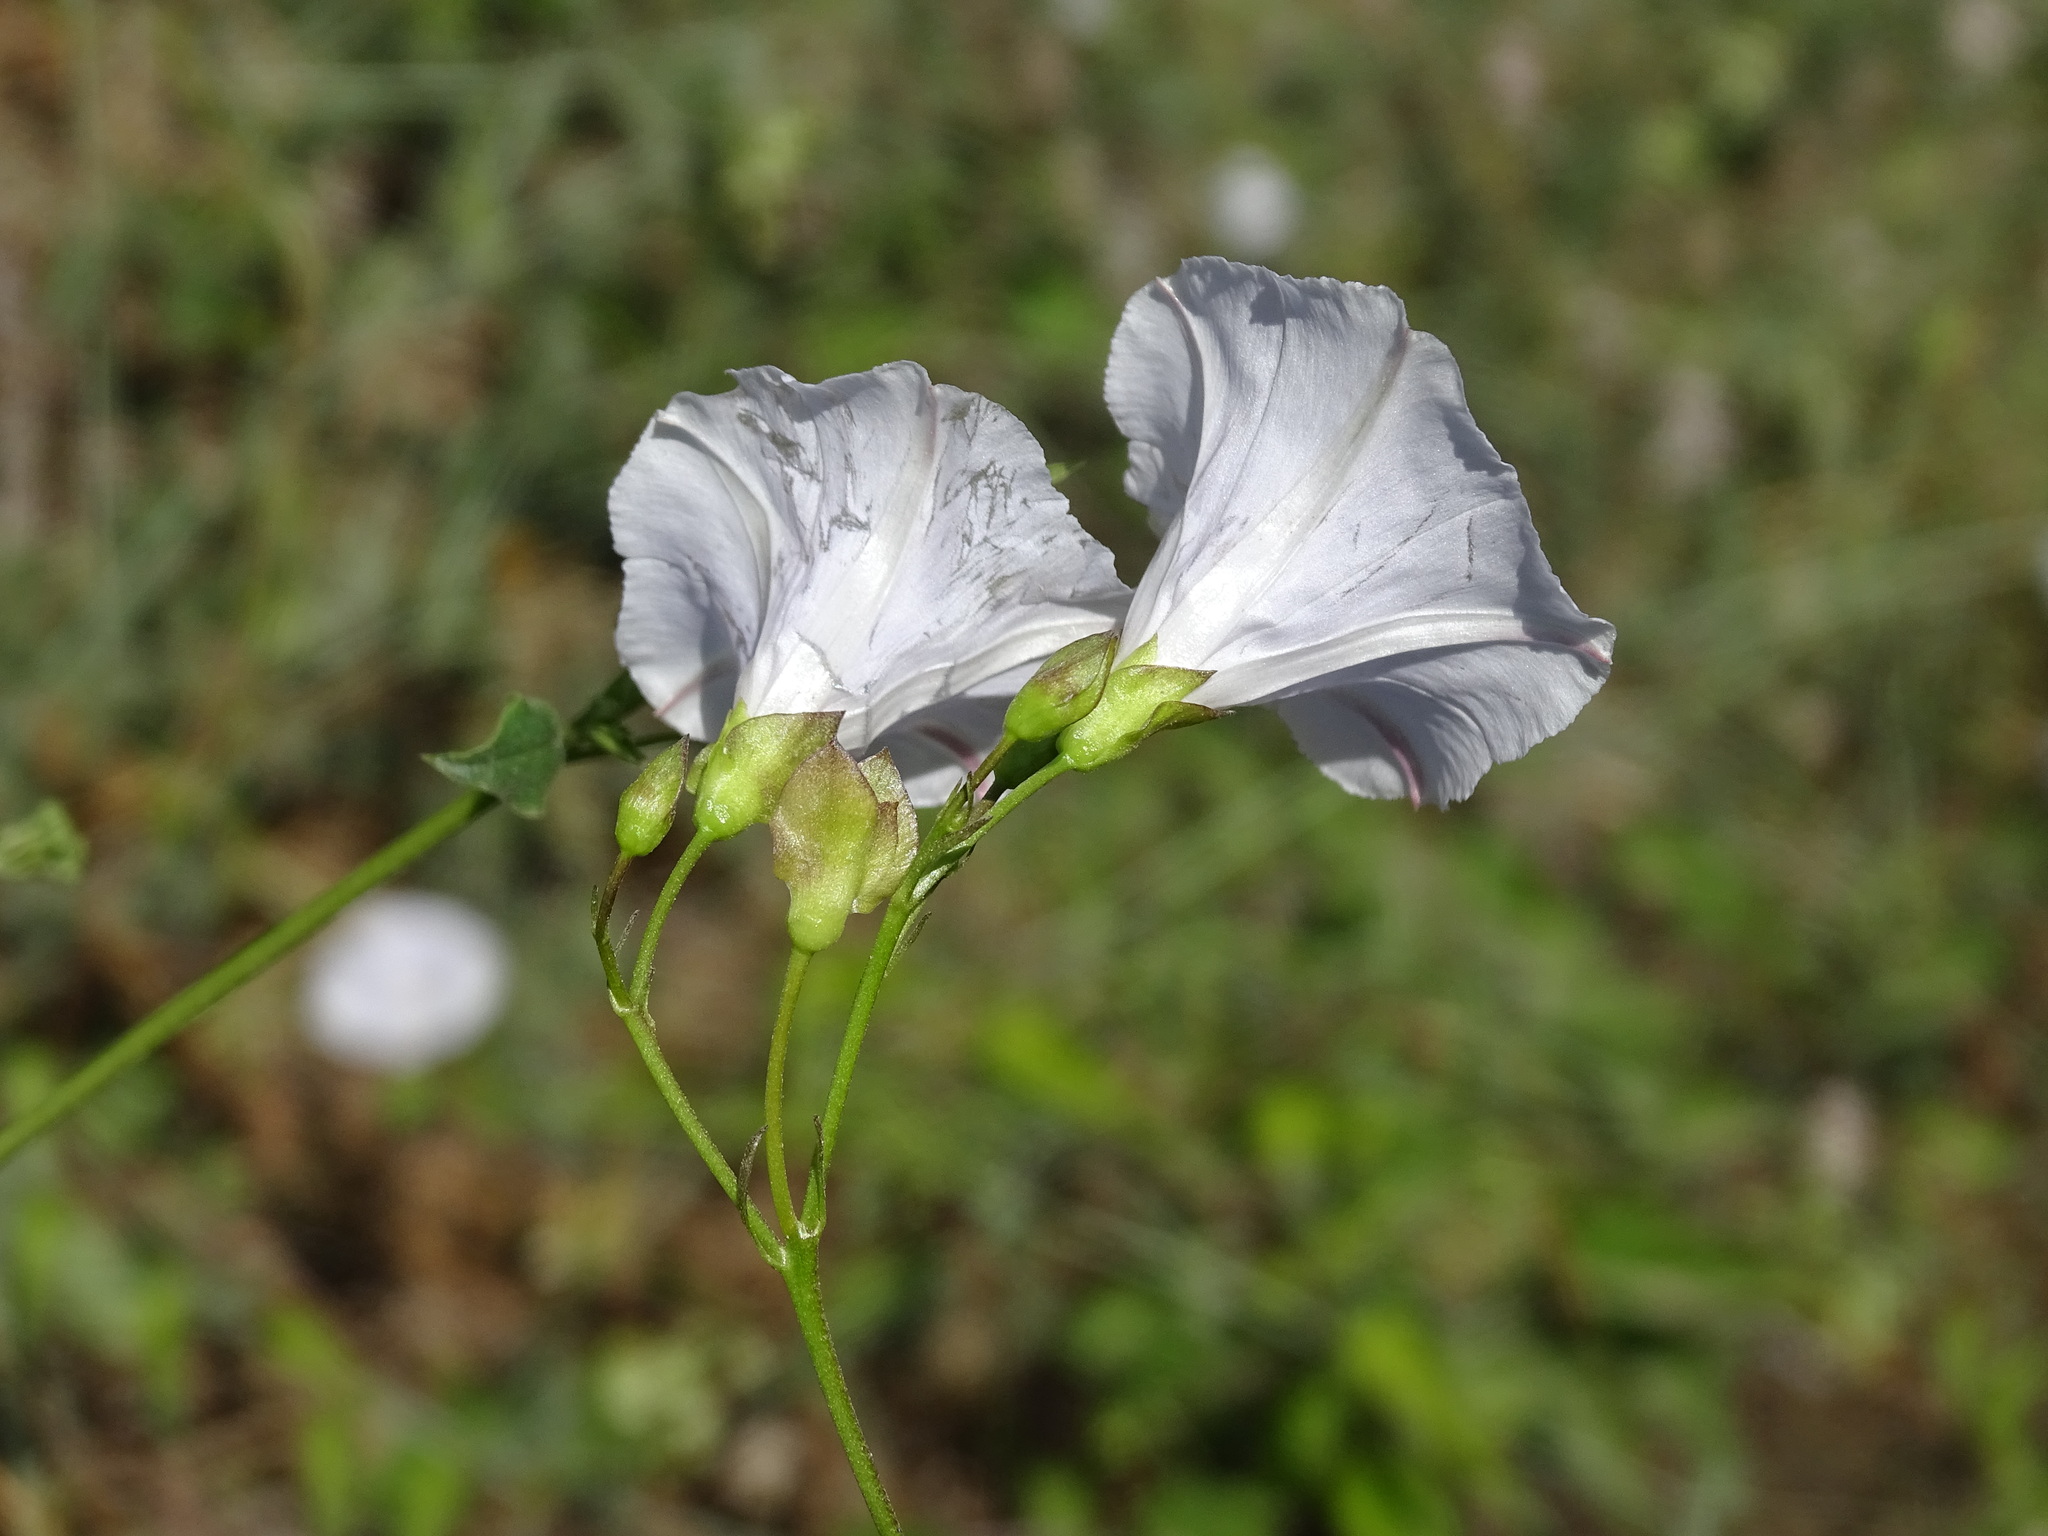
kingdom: Plantae
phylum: Tracheophyta
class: Magnoliopsida
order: Solanales
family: Convolvulaceae
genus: Jacquemontia
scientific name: Jacquemontia pringlei
